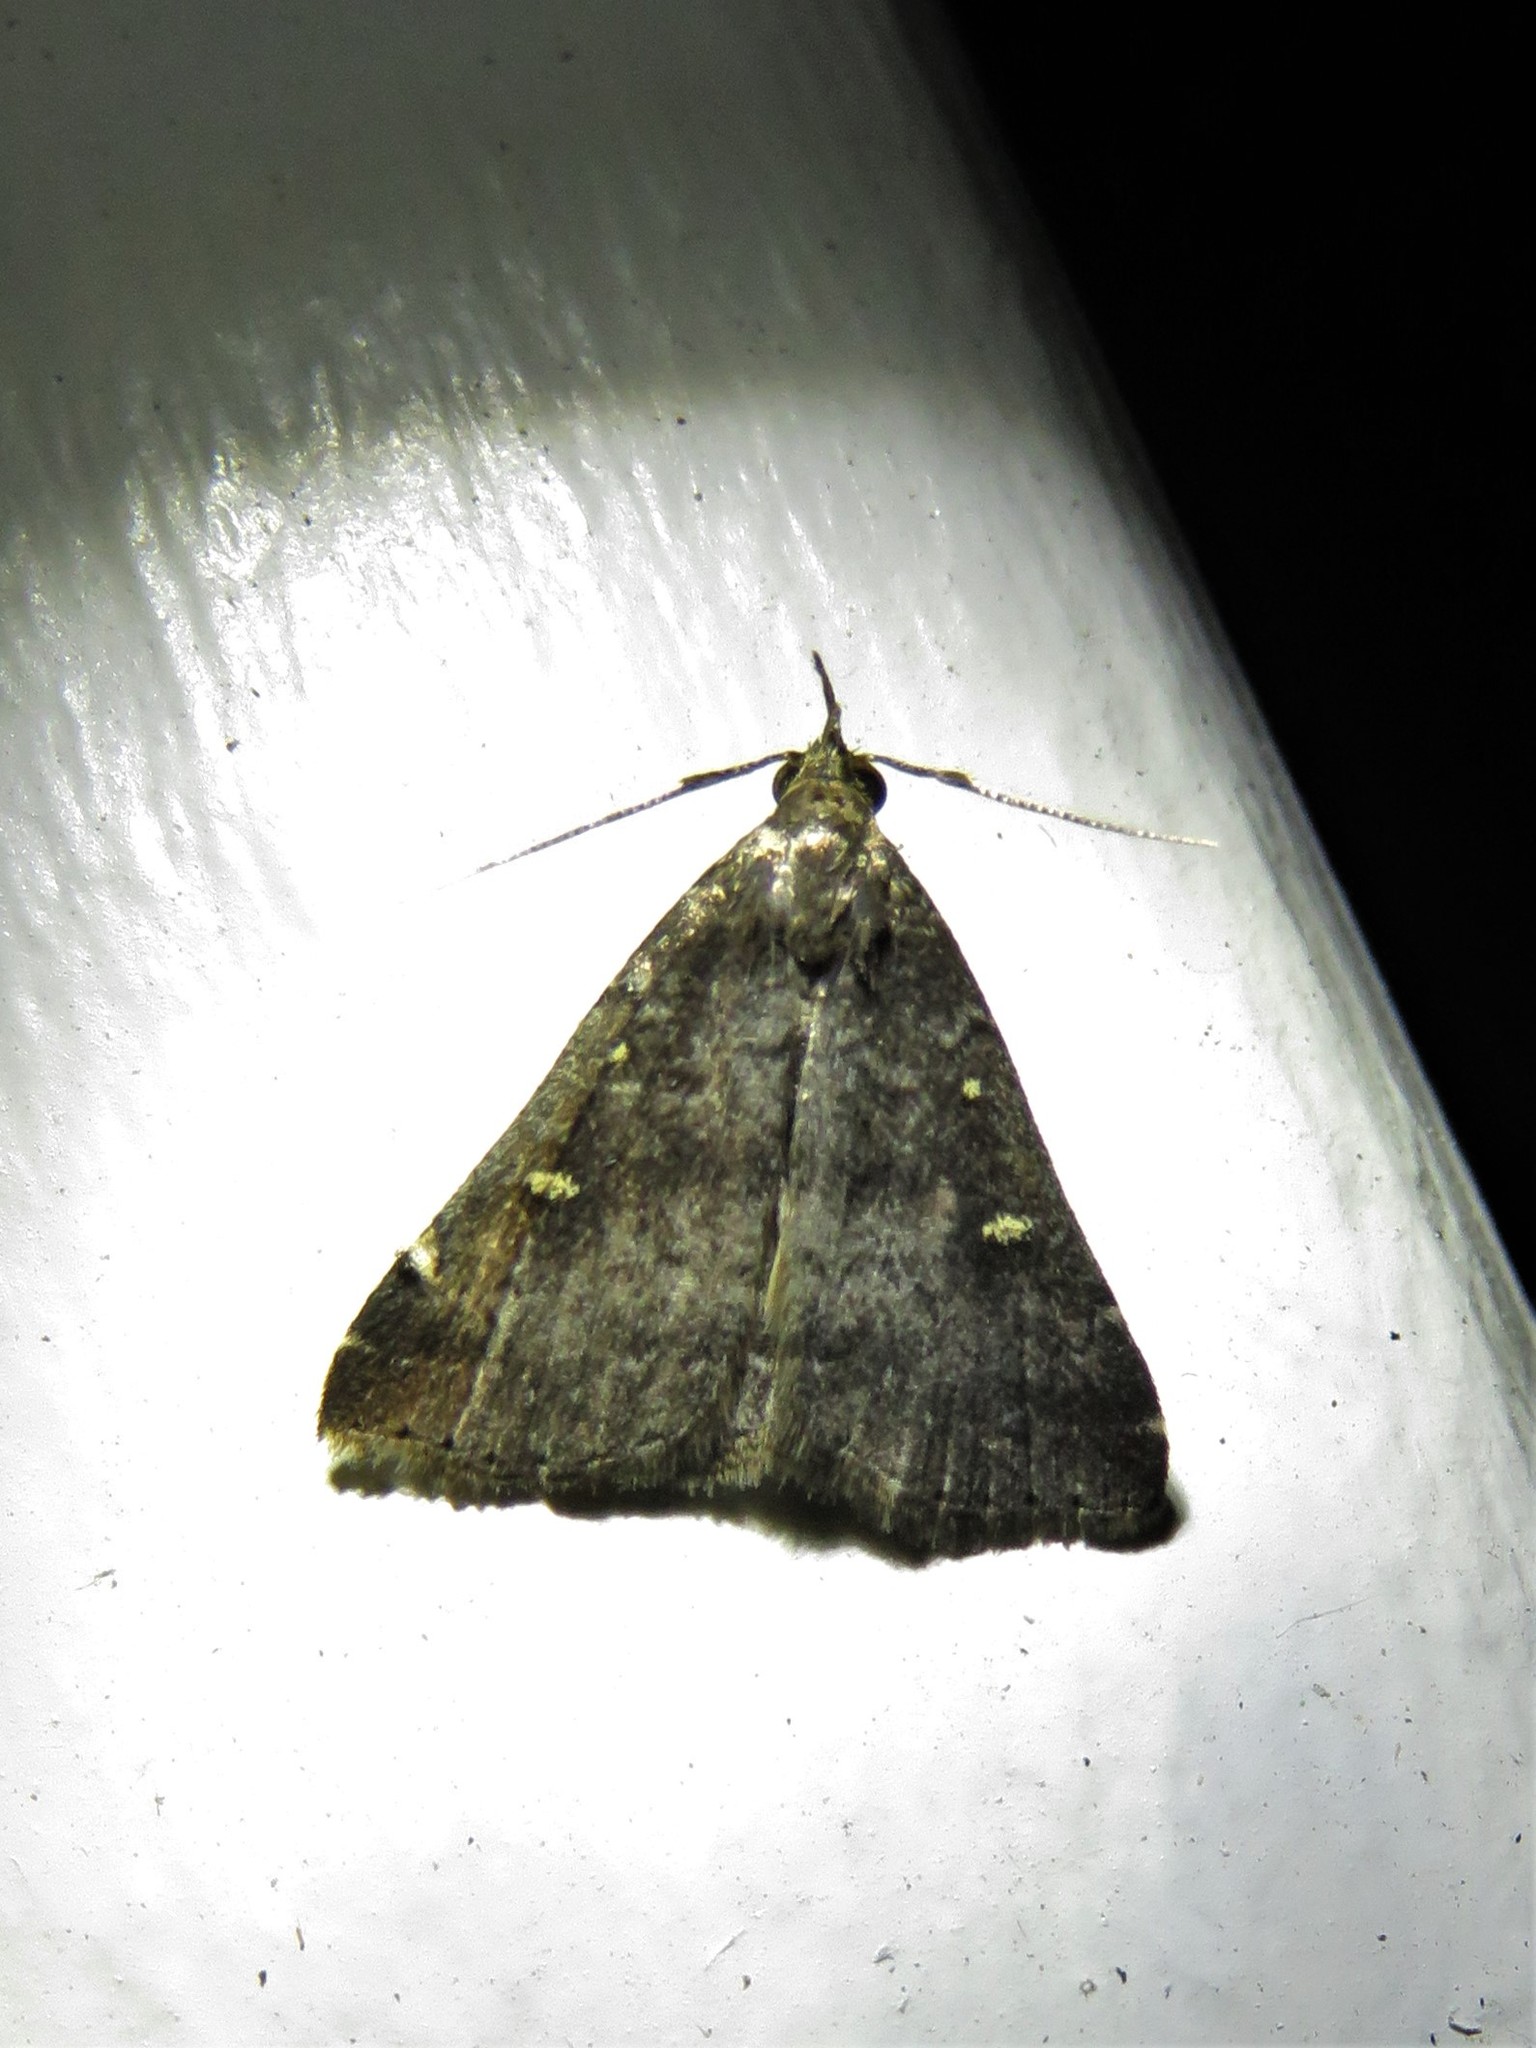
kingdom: Animalia
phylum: Arthropoda
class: Insecta
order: Lepidoptera
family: Erebidae
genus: Tetanolita
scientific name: Tetanolita mynesalis
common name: Smoky tetanolita moth
